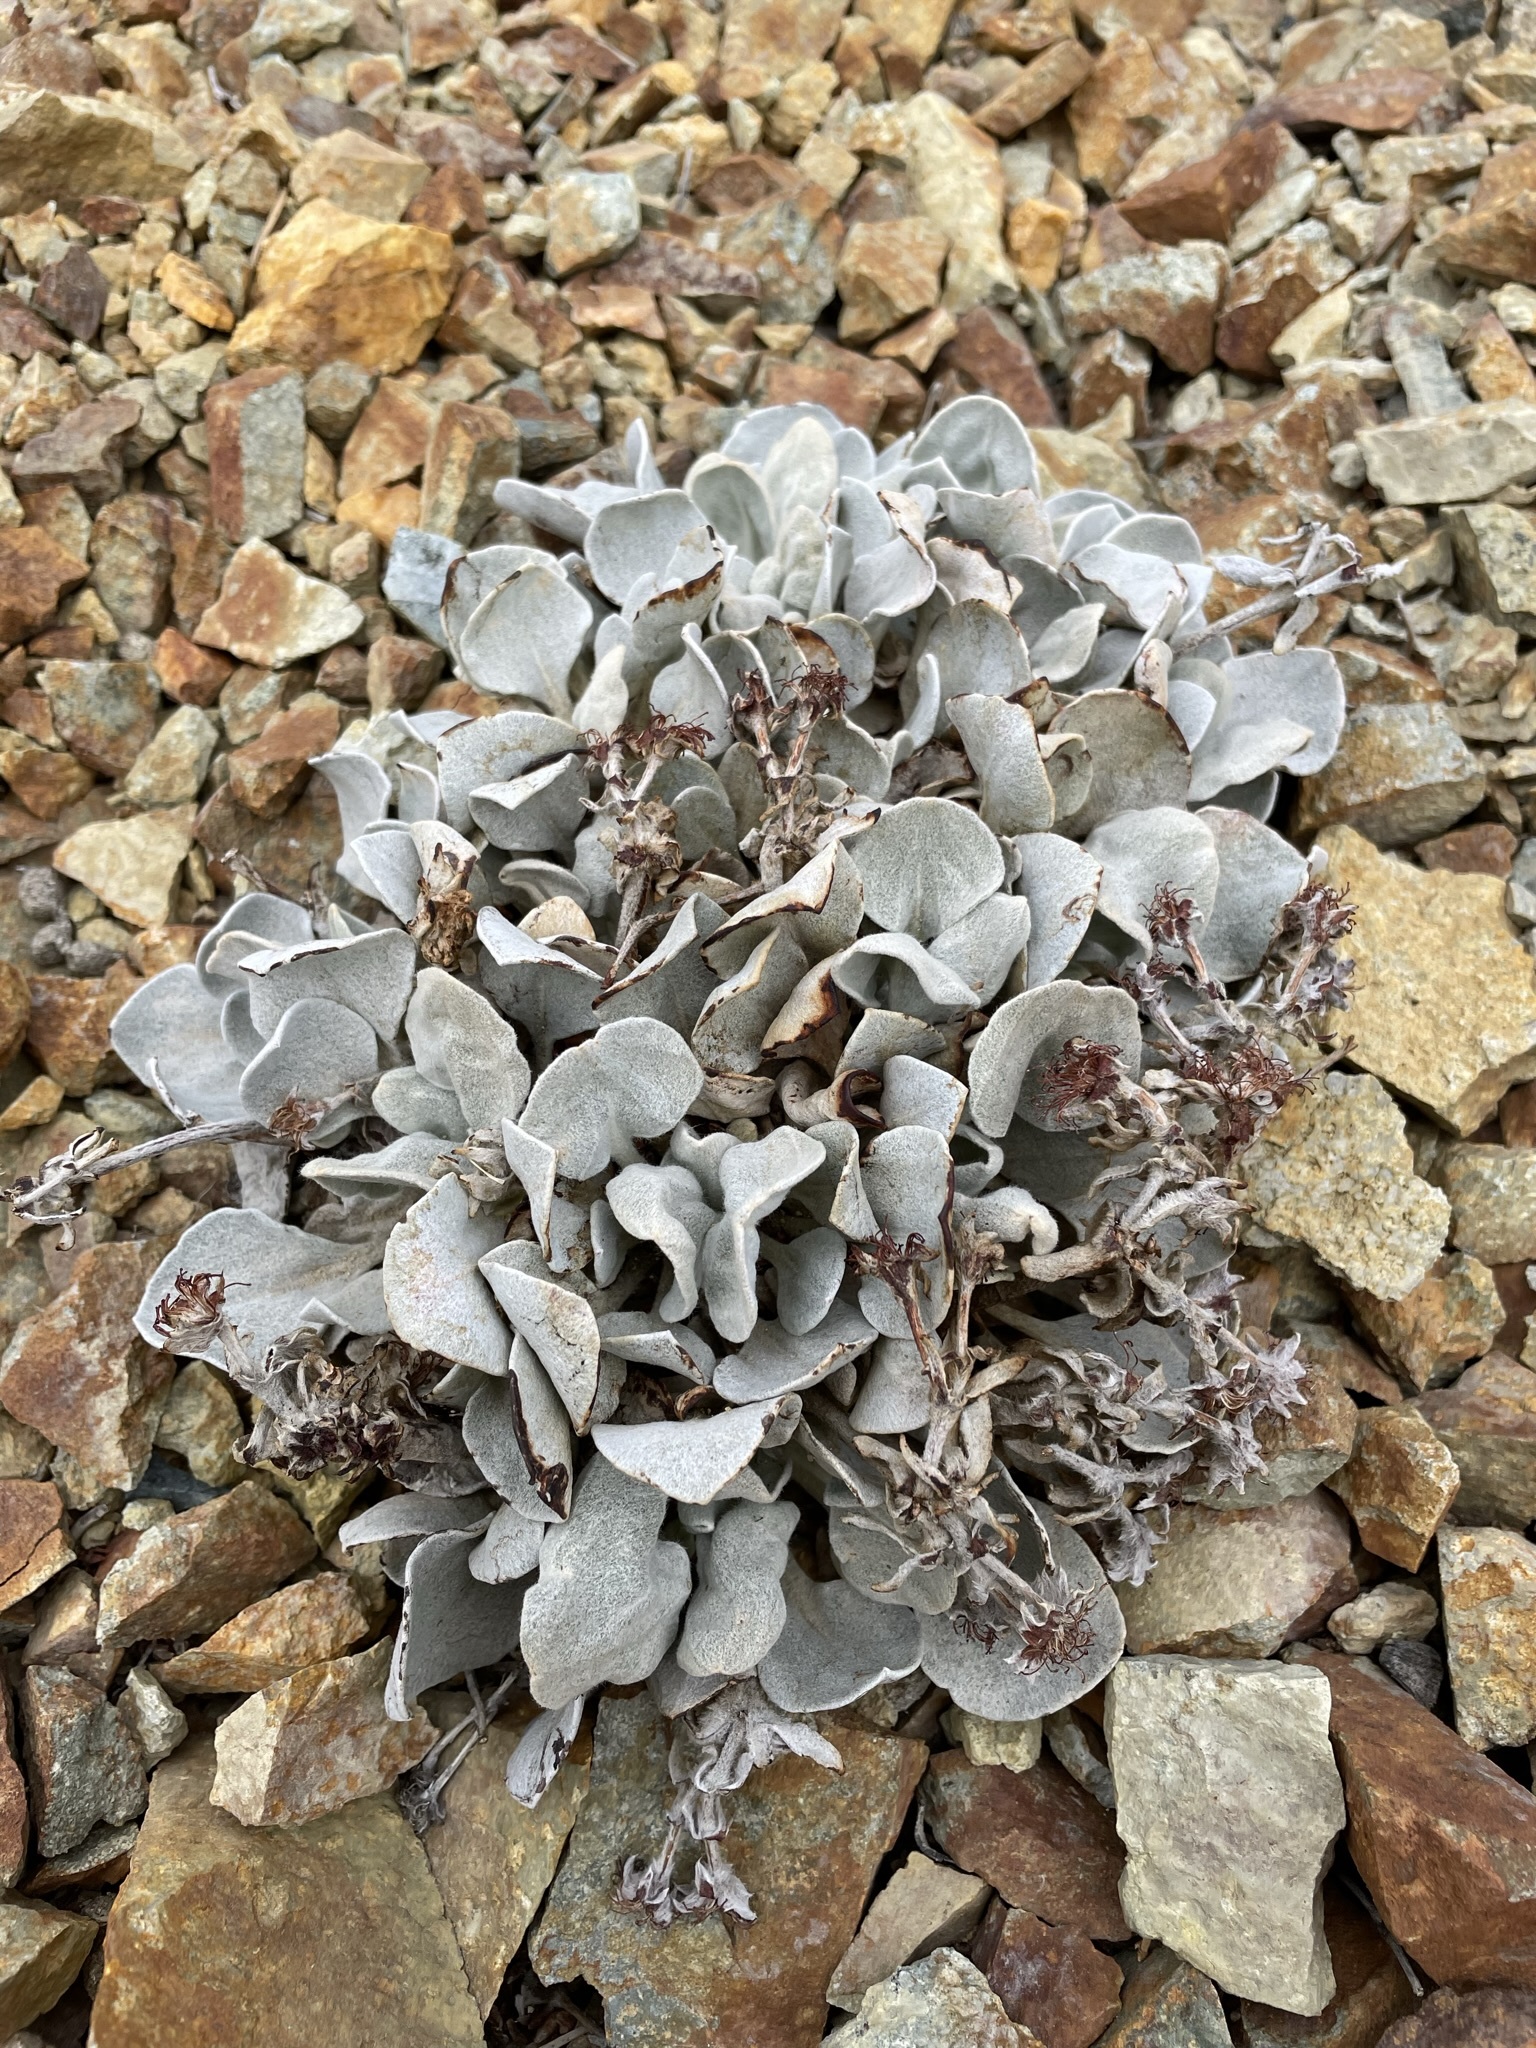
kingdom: Plantae
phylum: Tracheophyta
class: Magnoliopsida
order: Caryophyllales
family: Polygonaceae
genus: Eriogonum
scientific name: Eriogonum robustum
